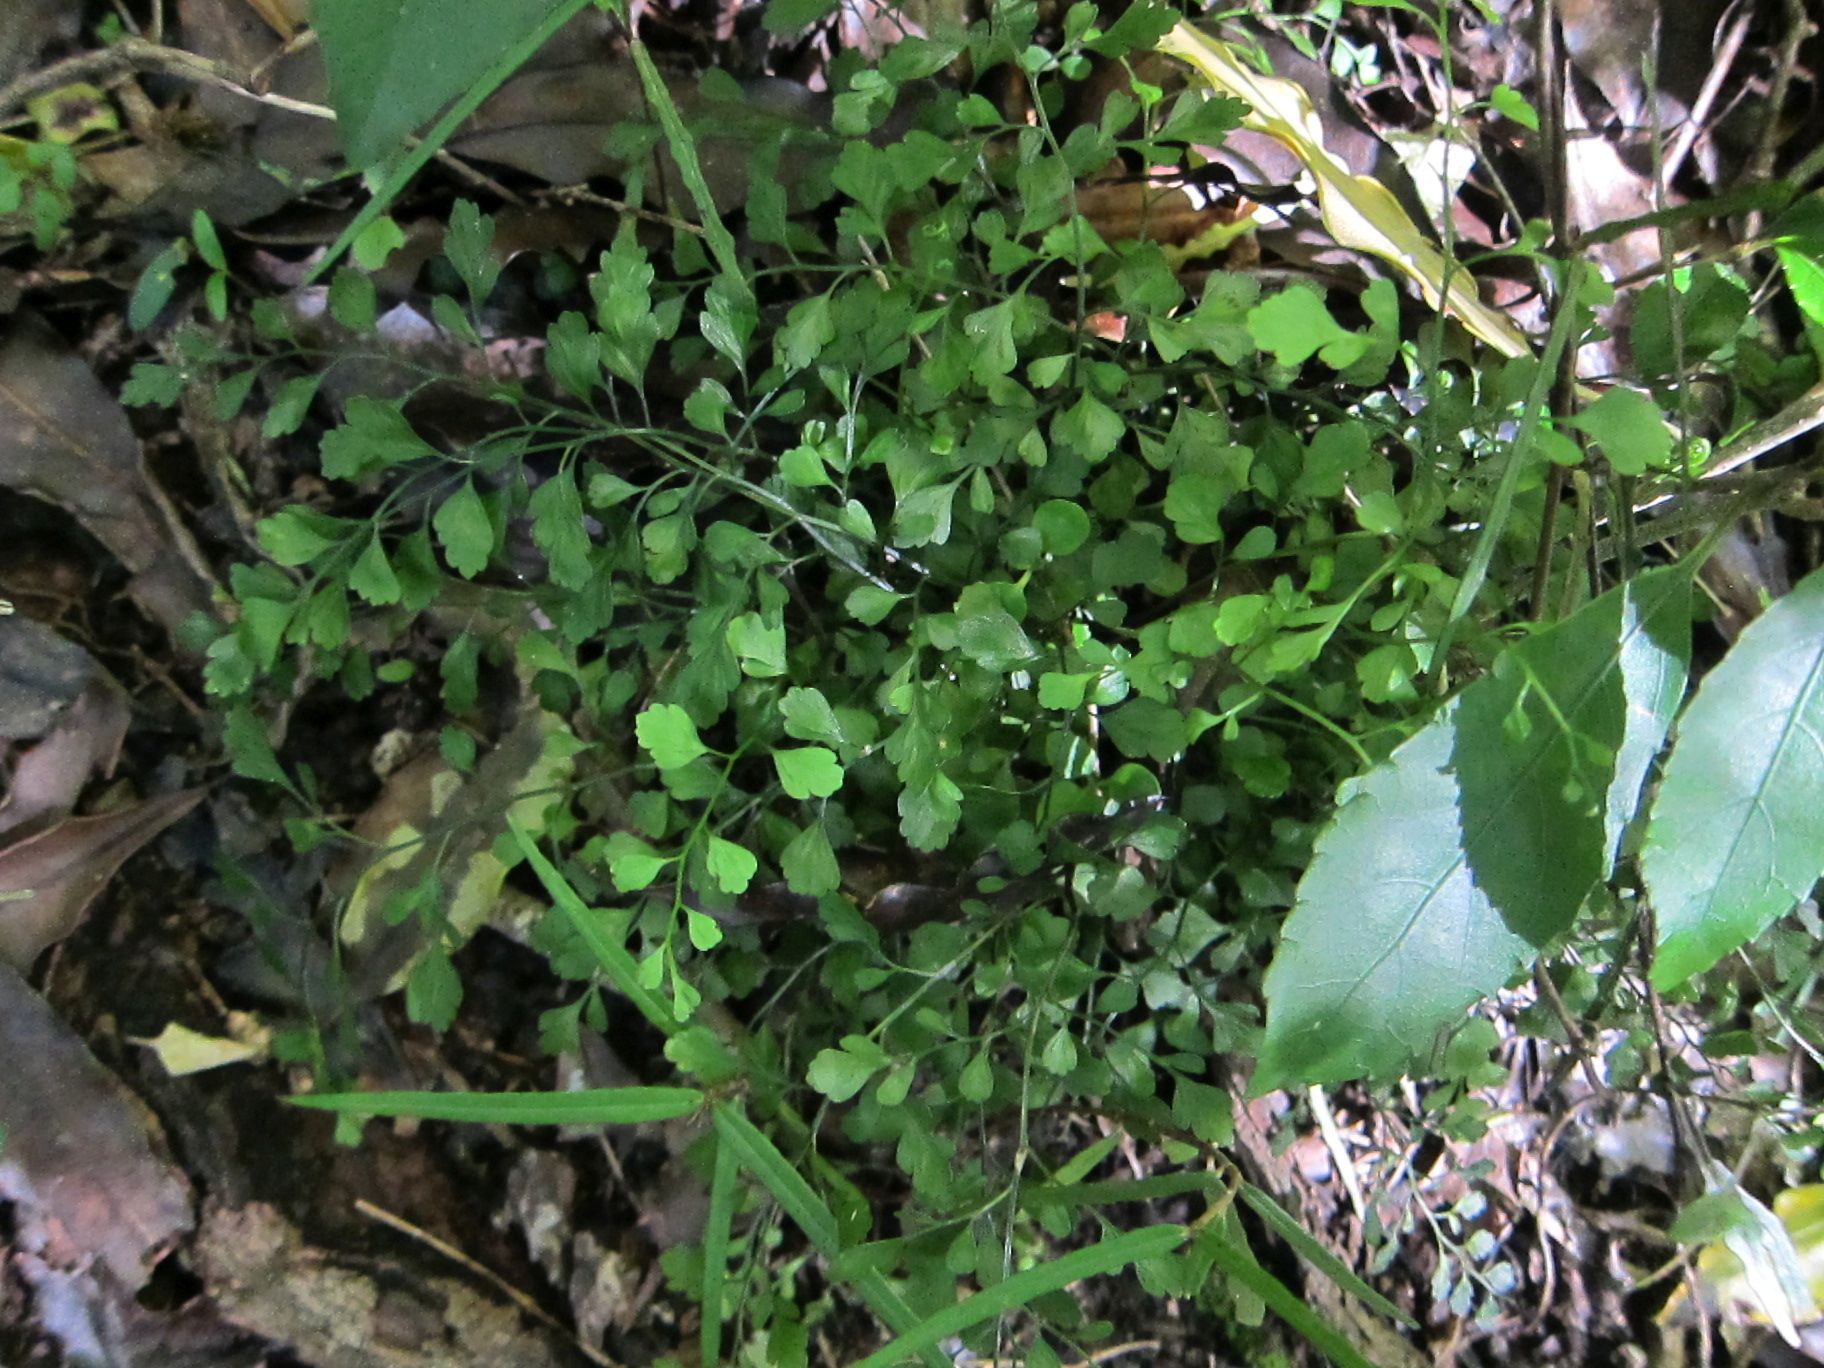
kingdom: Plantae
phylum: Tracheophyta
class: Polypodiopsida
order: Polypodiales
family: Aspleniaceae
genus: Asplenium
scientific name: Asplenium hookerianum
